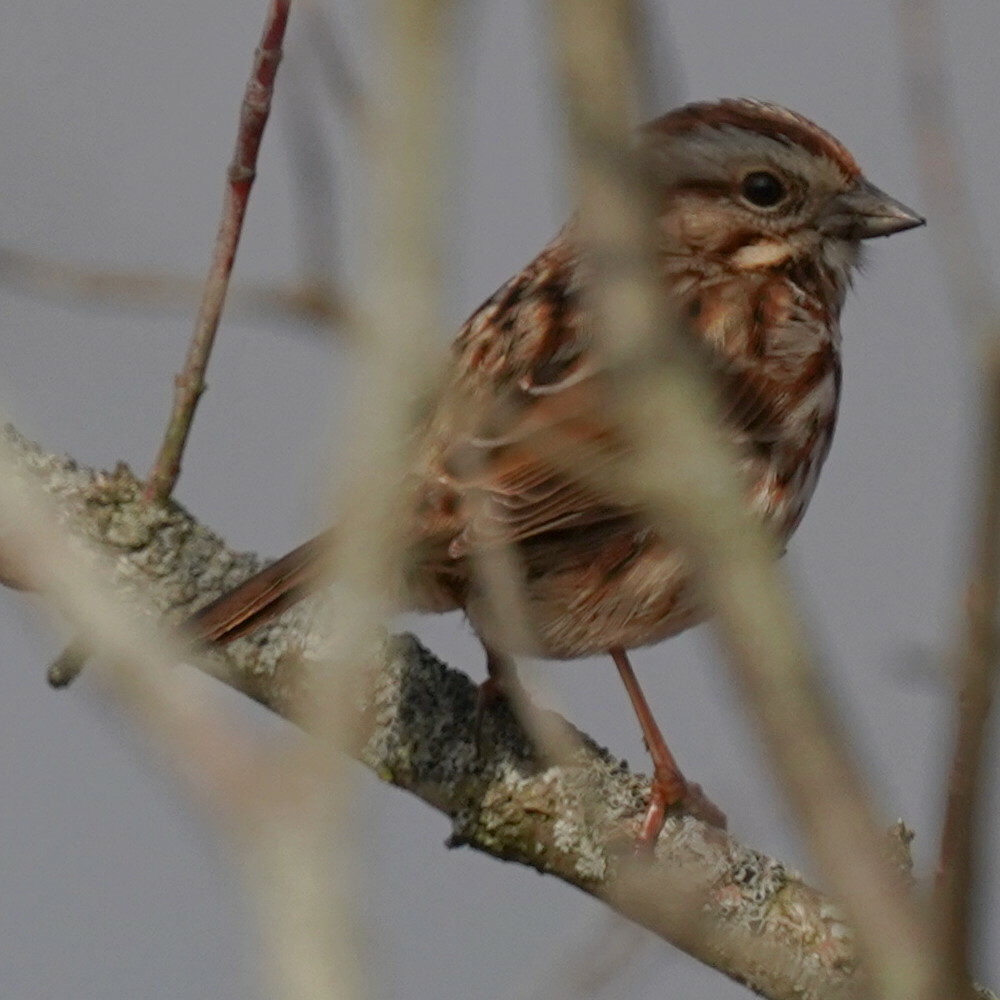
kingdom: Animalia
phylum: Chordata
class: Aves
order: Passeriformes
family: Passerellidae
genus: Melospiza
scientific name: Melospiza melodia
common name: Song sparrow
